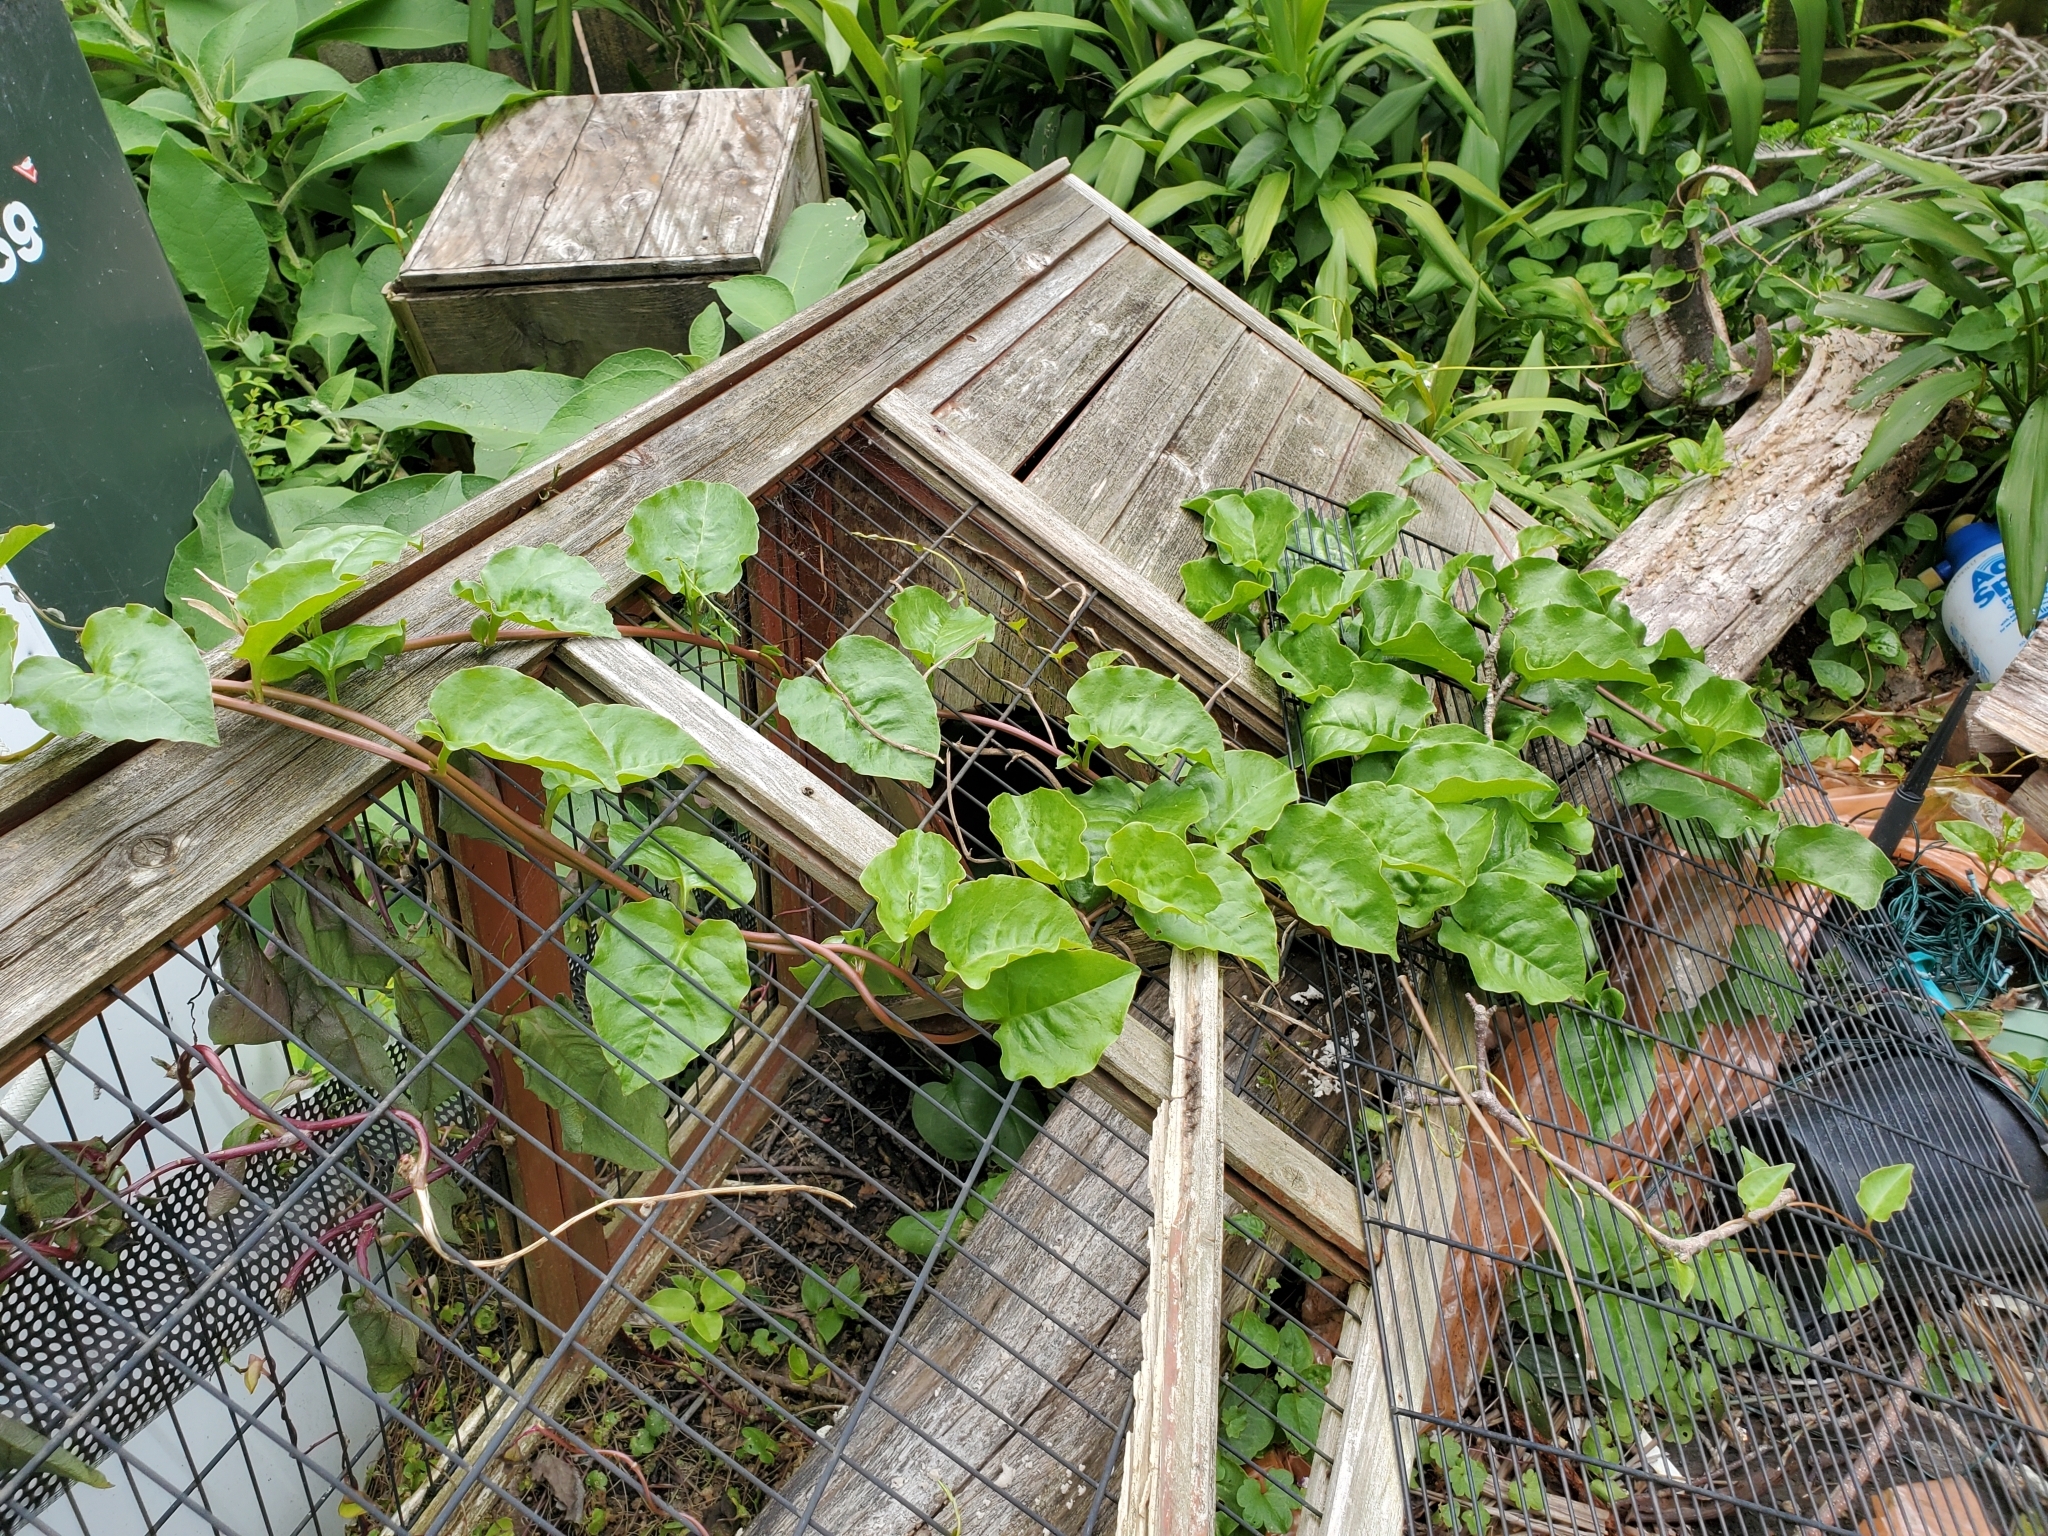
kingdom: Plantae
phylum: Tracheophyta
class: Magnoliopsida
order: Caryophyllales
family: Basellaceae
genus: Anredera
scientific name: Anredera cordifolia
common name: Heartleaf madeiravine
